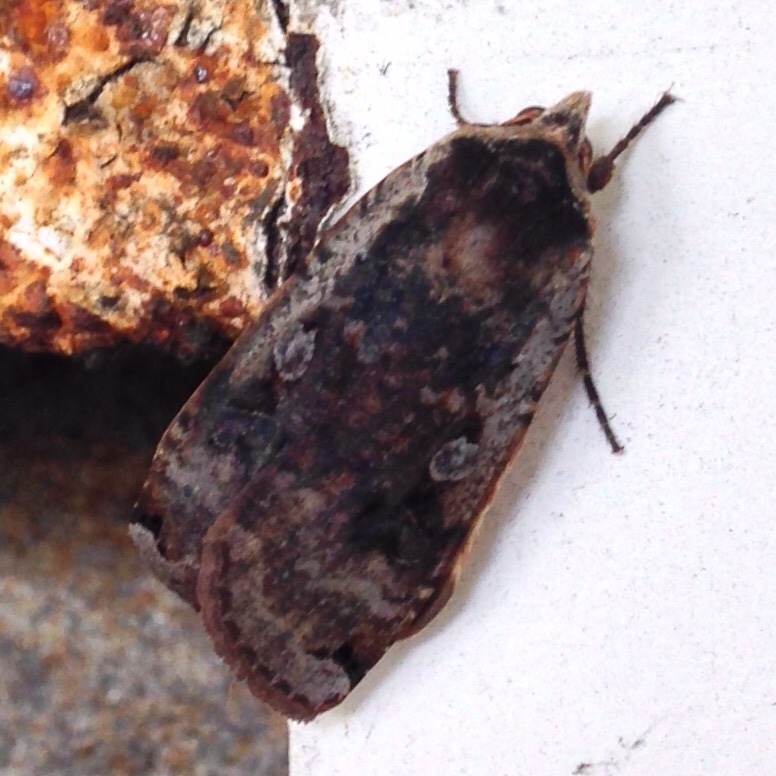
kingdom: Animalia
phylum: Arthropoda
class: Insecta
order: Lepidoptera
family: Noctuidae
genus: Noctua
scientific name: Noctua pronuba
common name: Large yellow underwing
